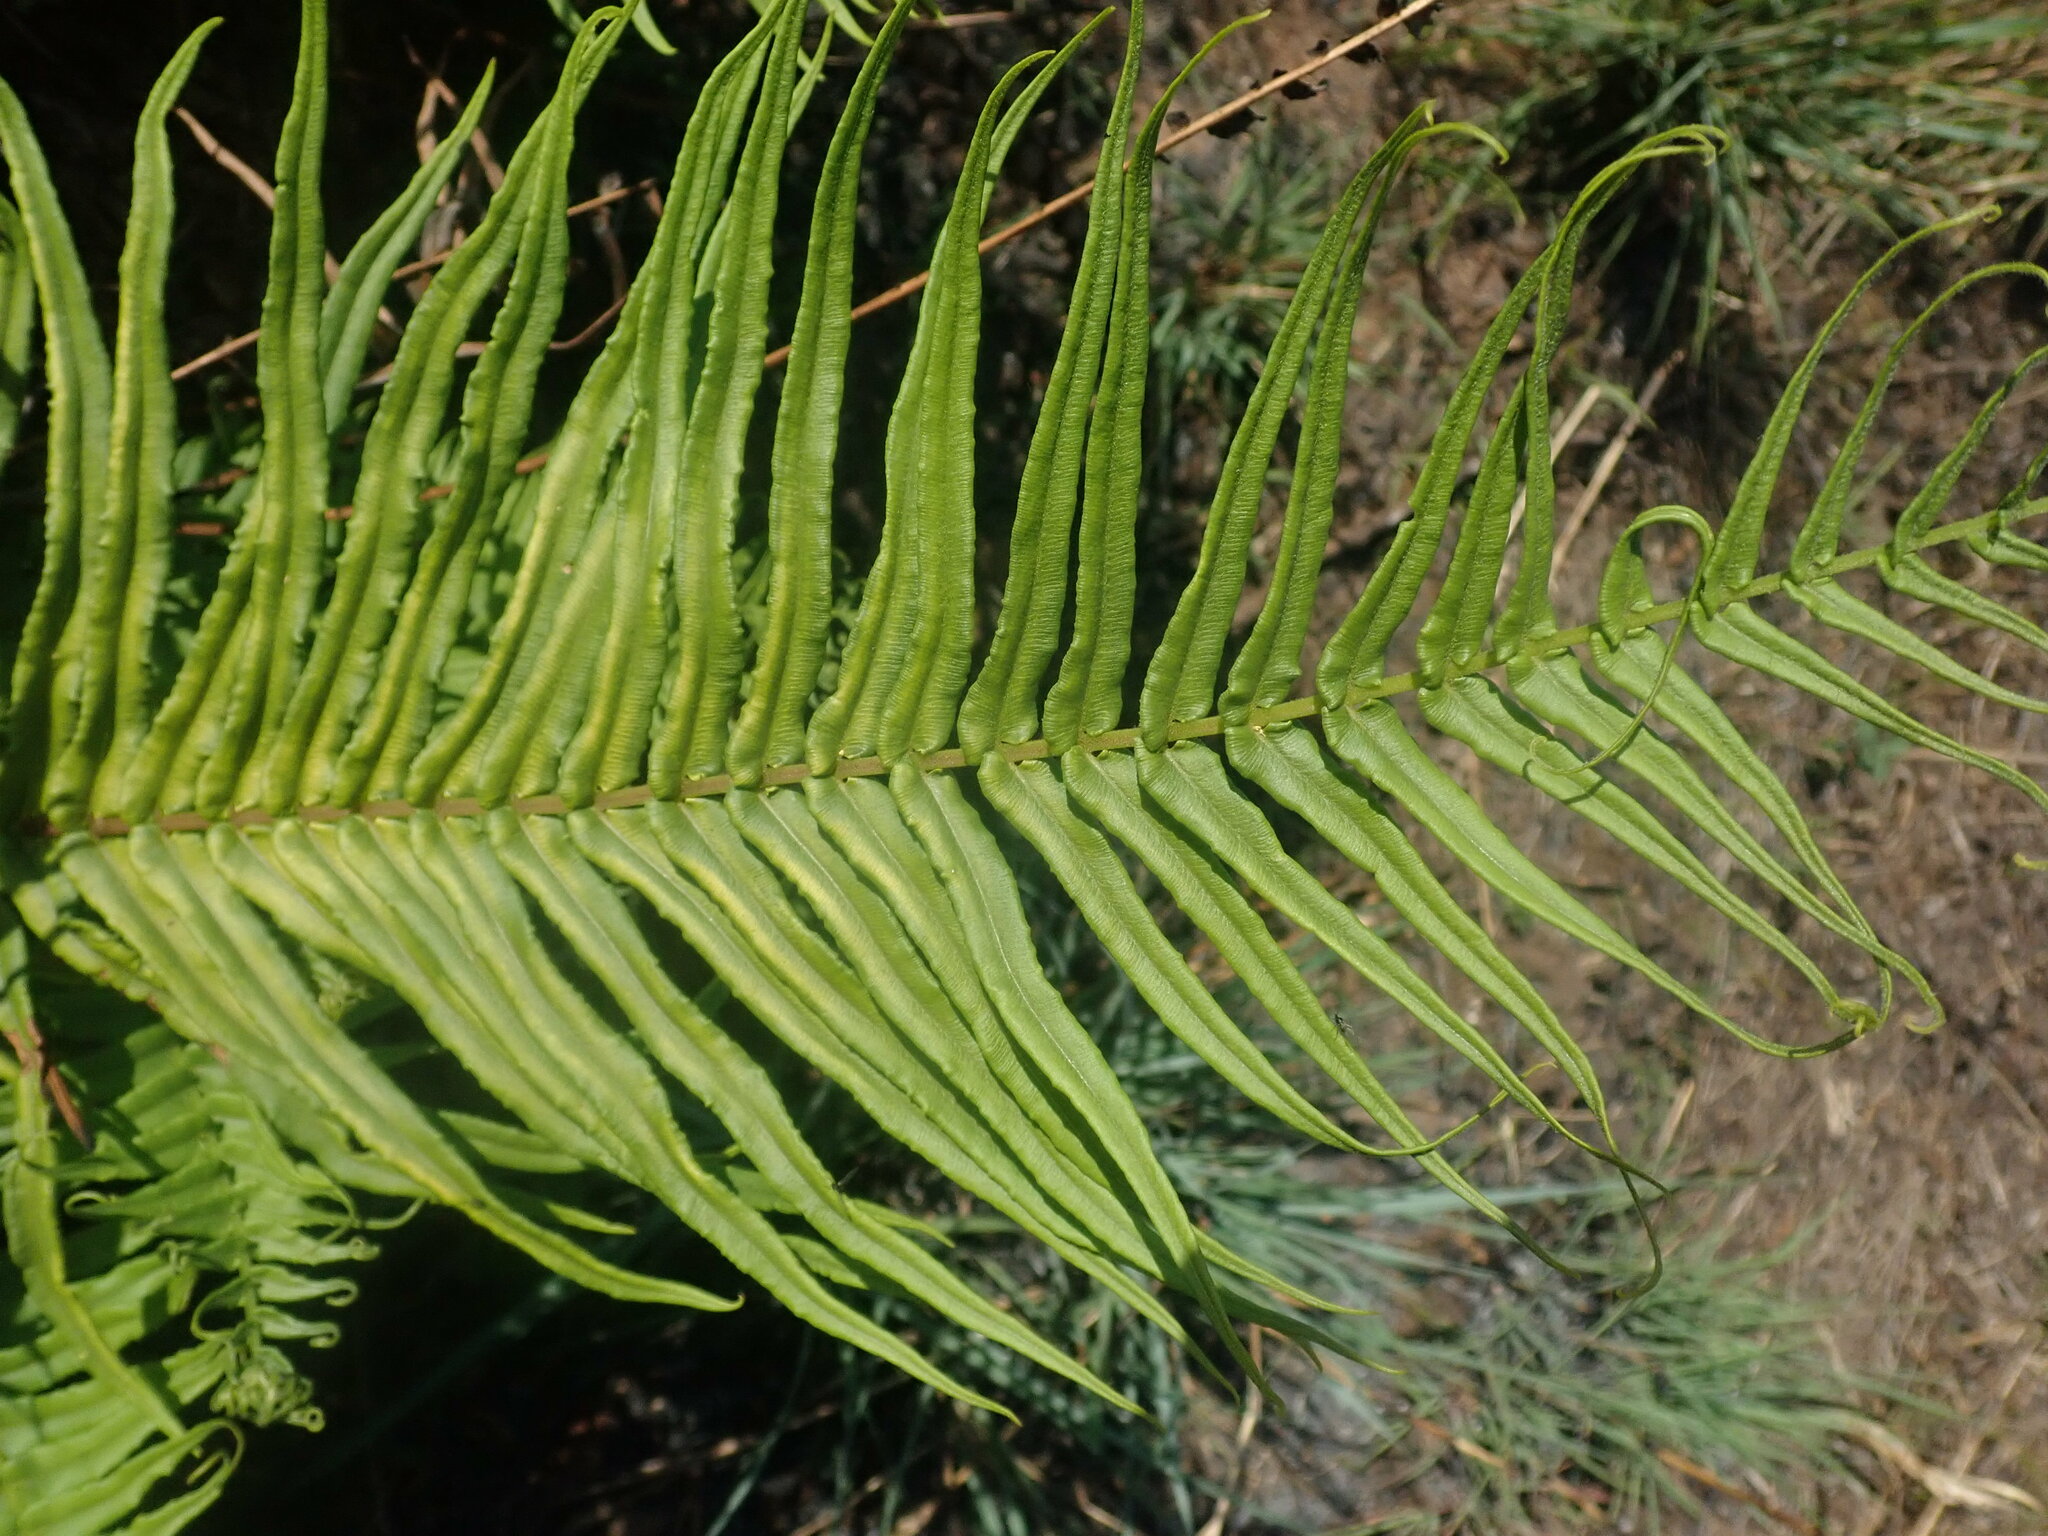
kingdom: Plantae
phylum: Tracheophyta
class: Polypodiopsida
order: Polypodiales
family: Pteridaceae
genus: Pteris
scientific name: Pteris vittata
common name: Ladder brake
